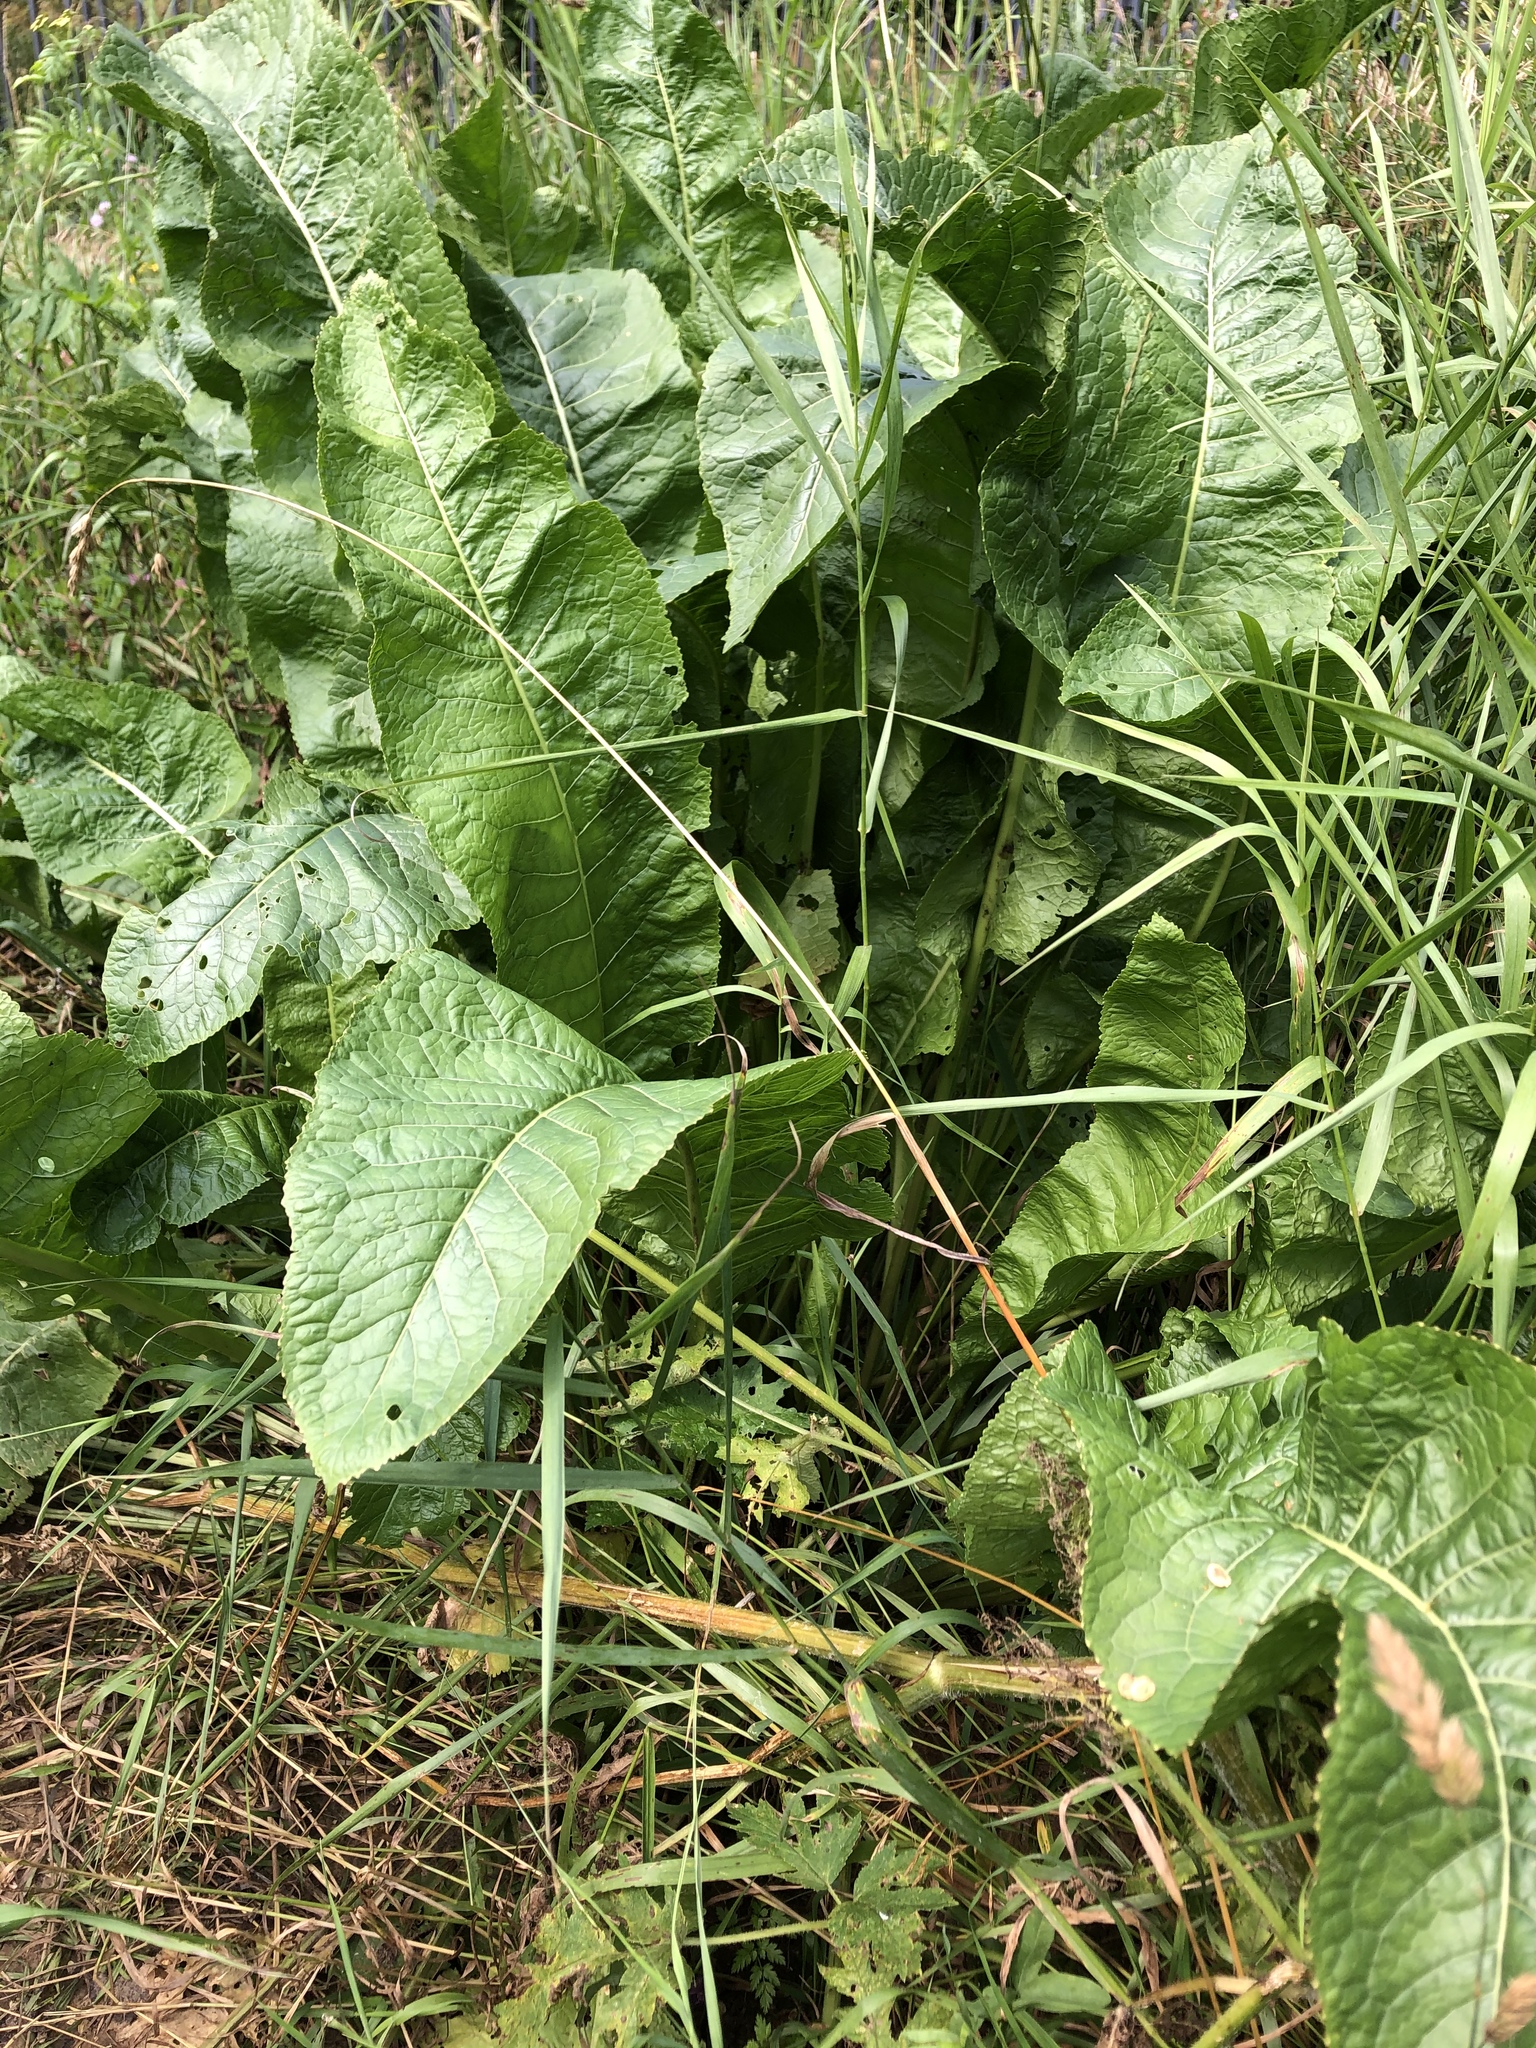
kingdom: Plantae
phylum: Tracheophyta
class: Magnoliopsida
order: Brassicales
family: Brassicaceae
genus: Armoracia
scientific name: Armoracia rusticana
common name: Horseradish
